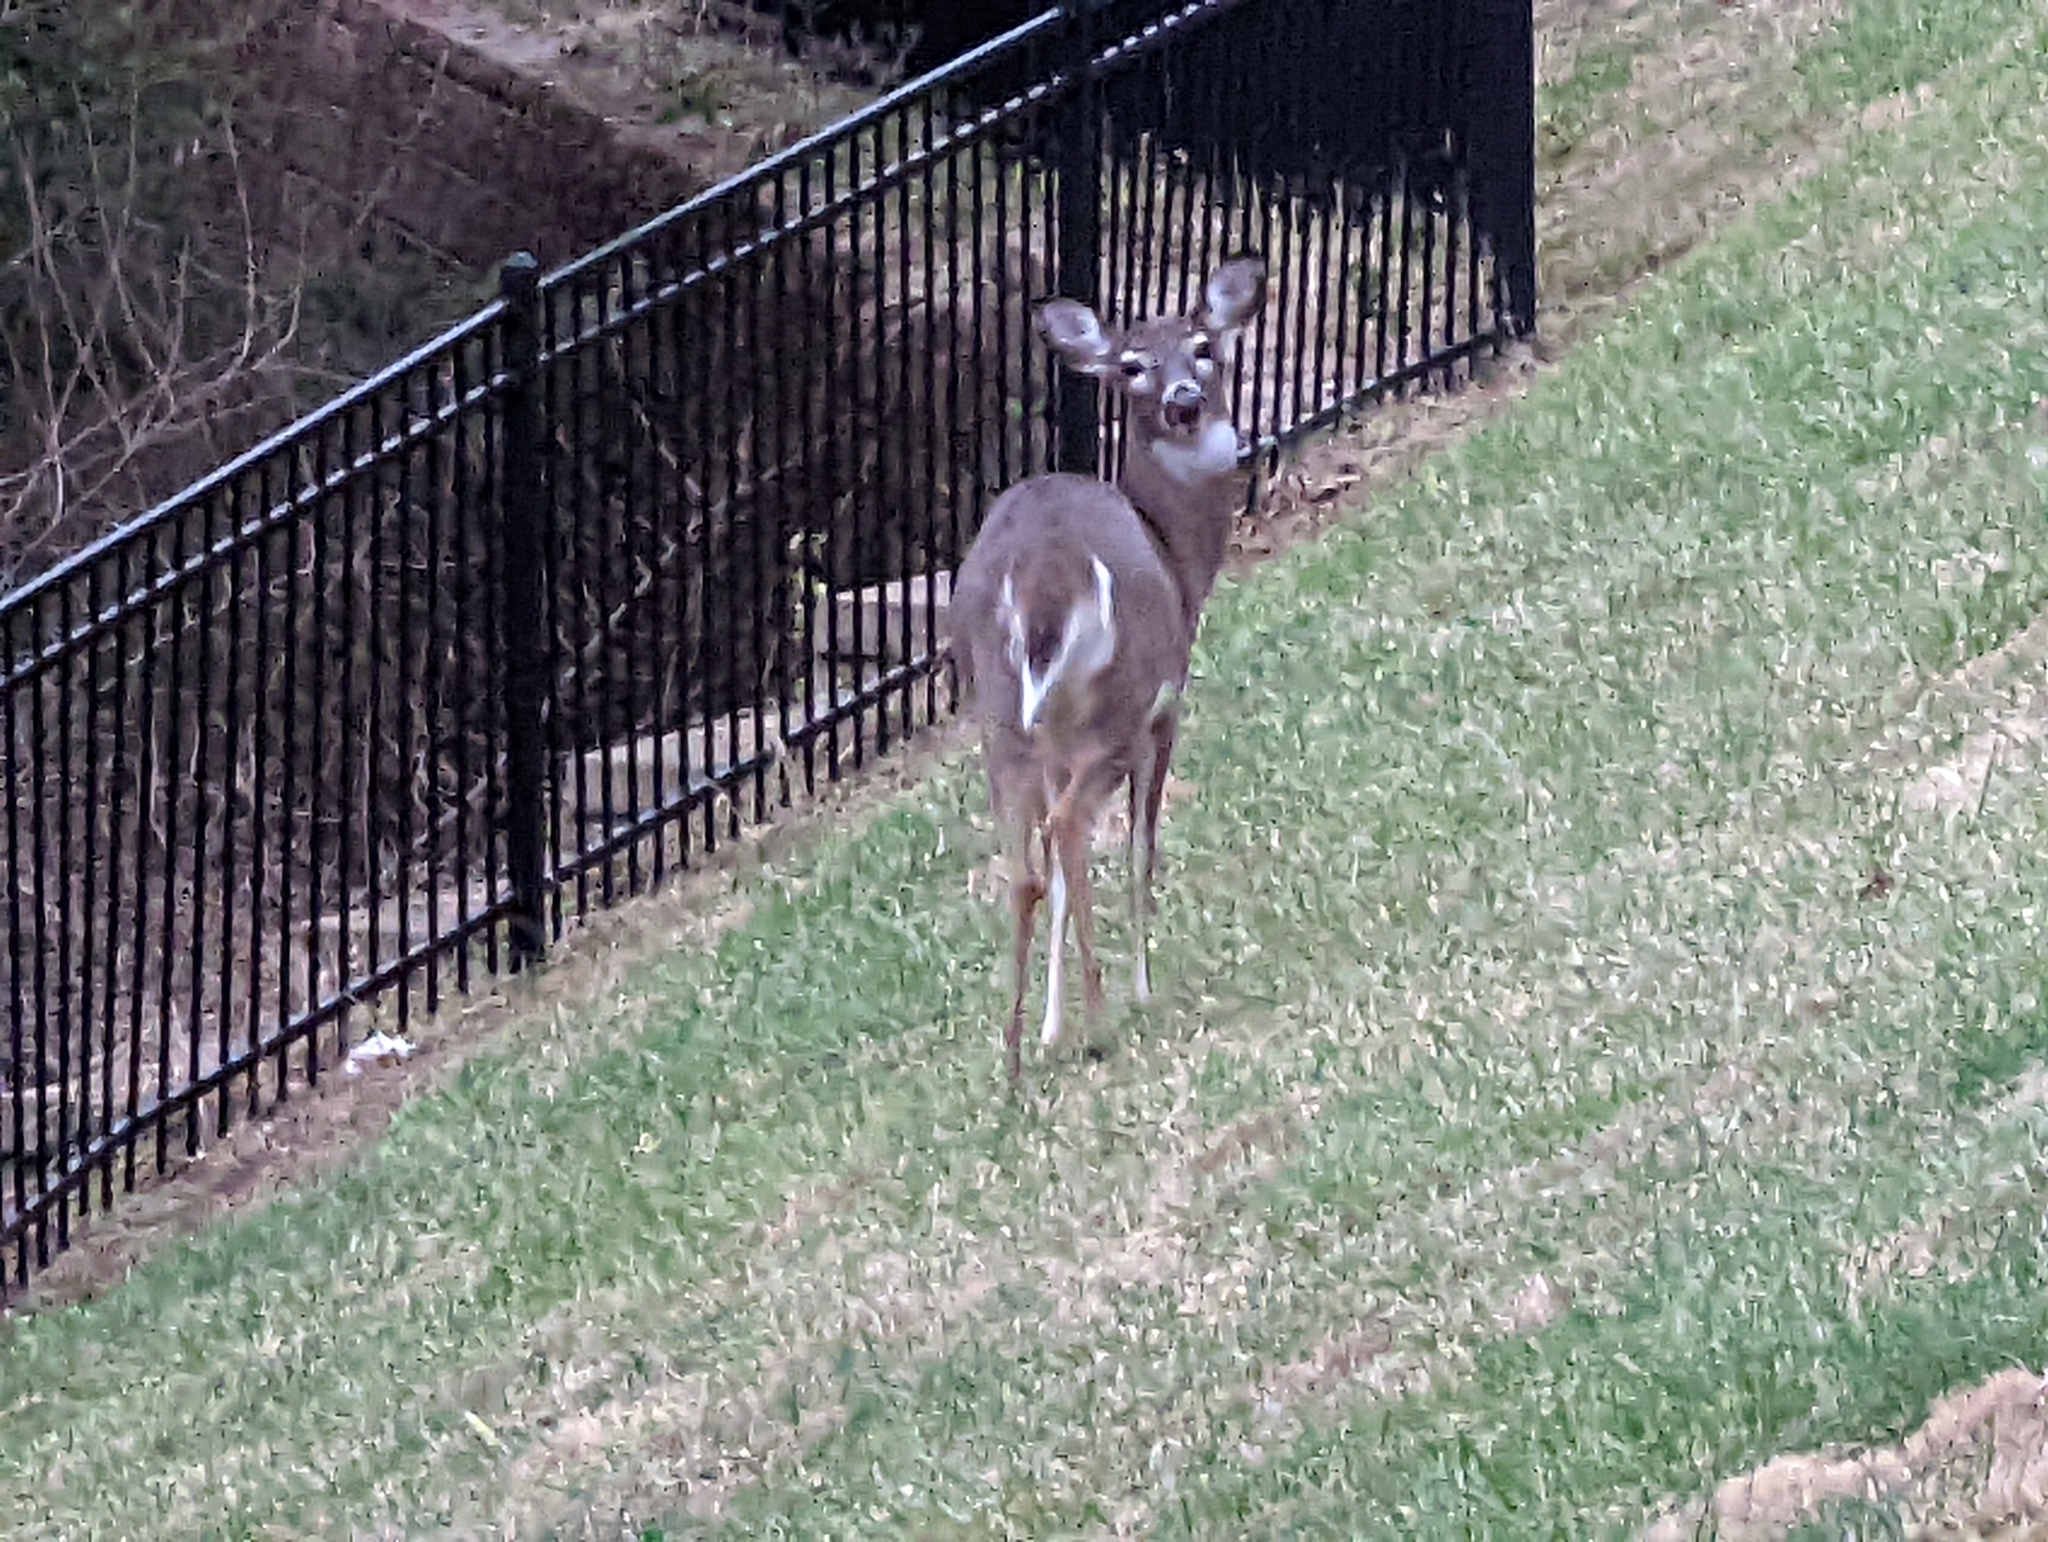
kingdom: Animalia
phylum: Chordata
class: Mammalia
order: Artiodactyla
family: Cervidae
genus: Odocoileus
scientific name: Odocoileus virginianus
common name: White-tailed deer
